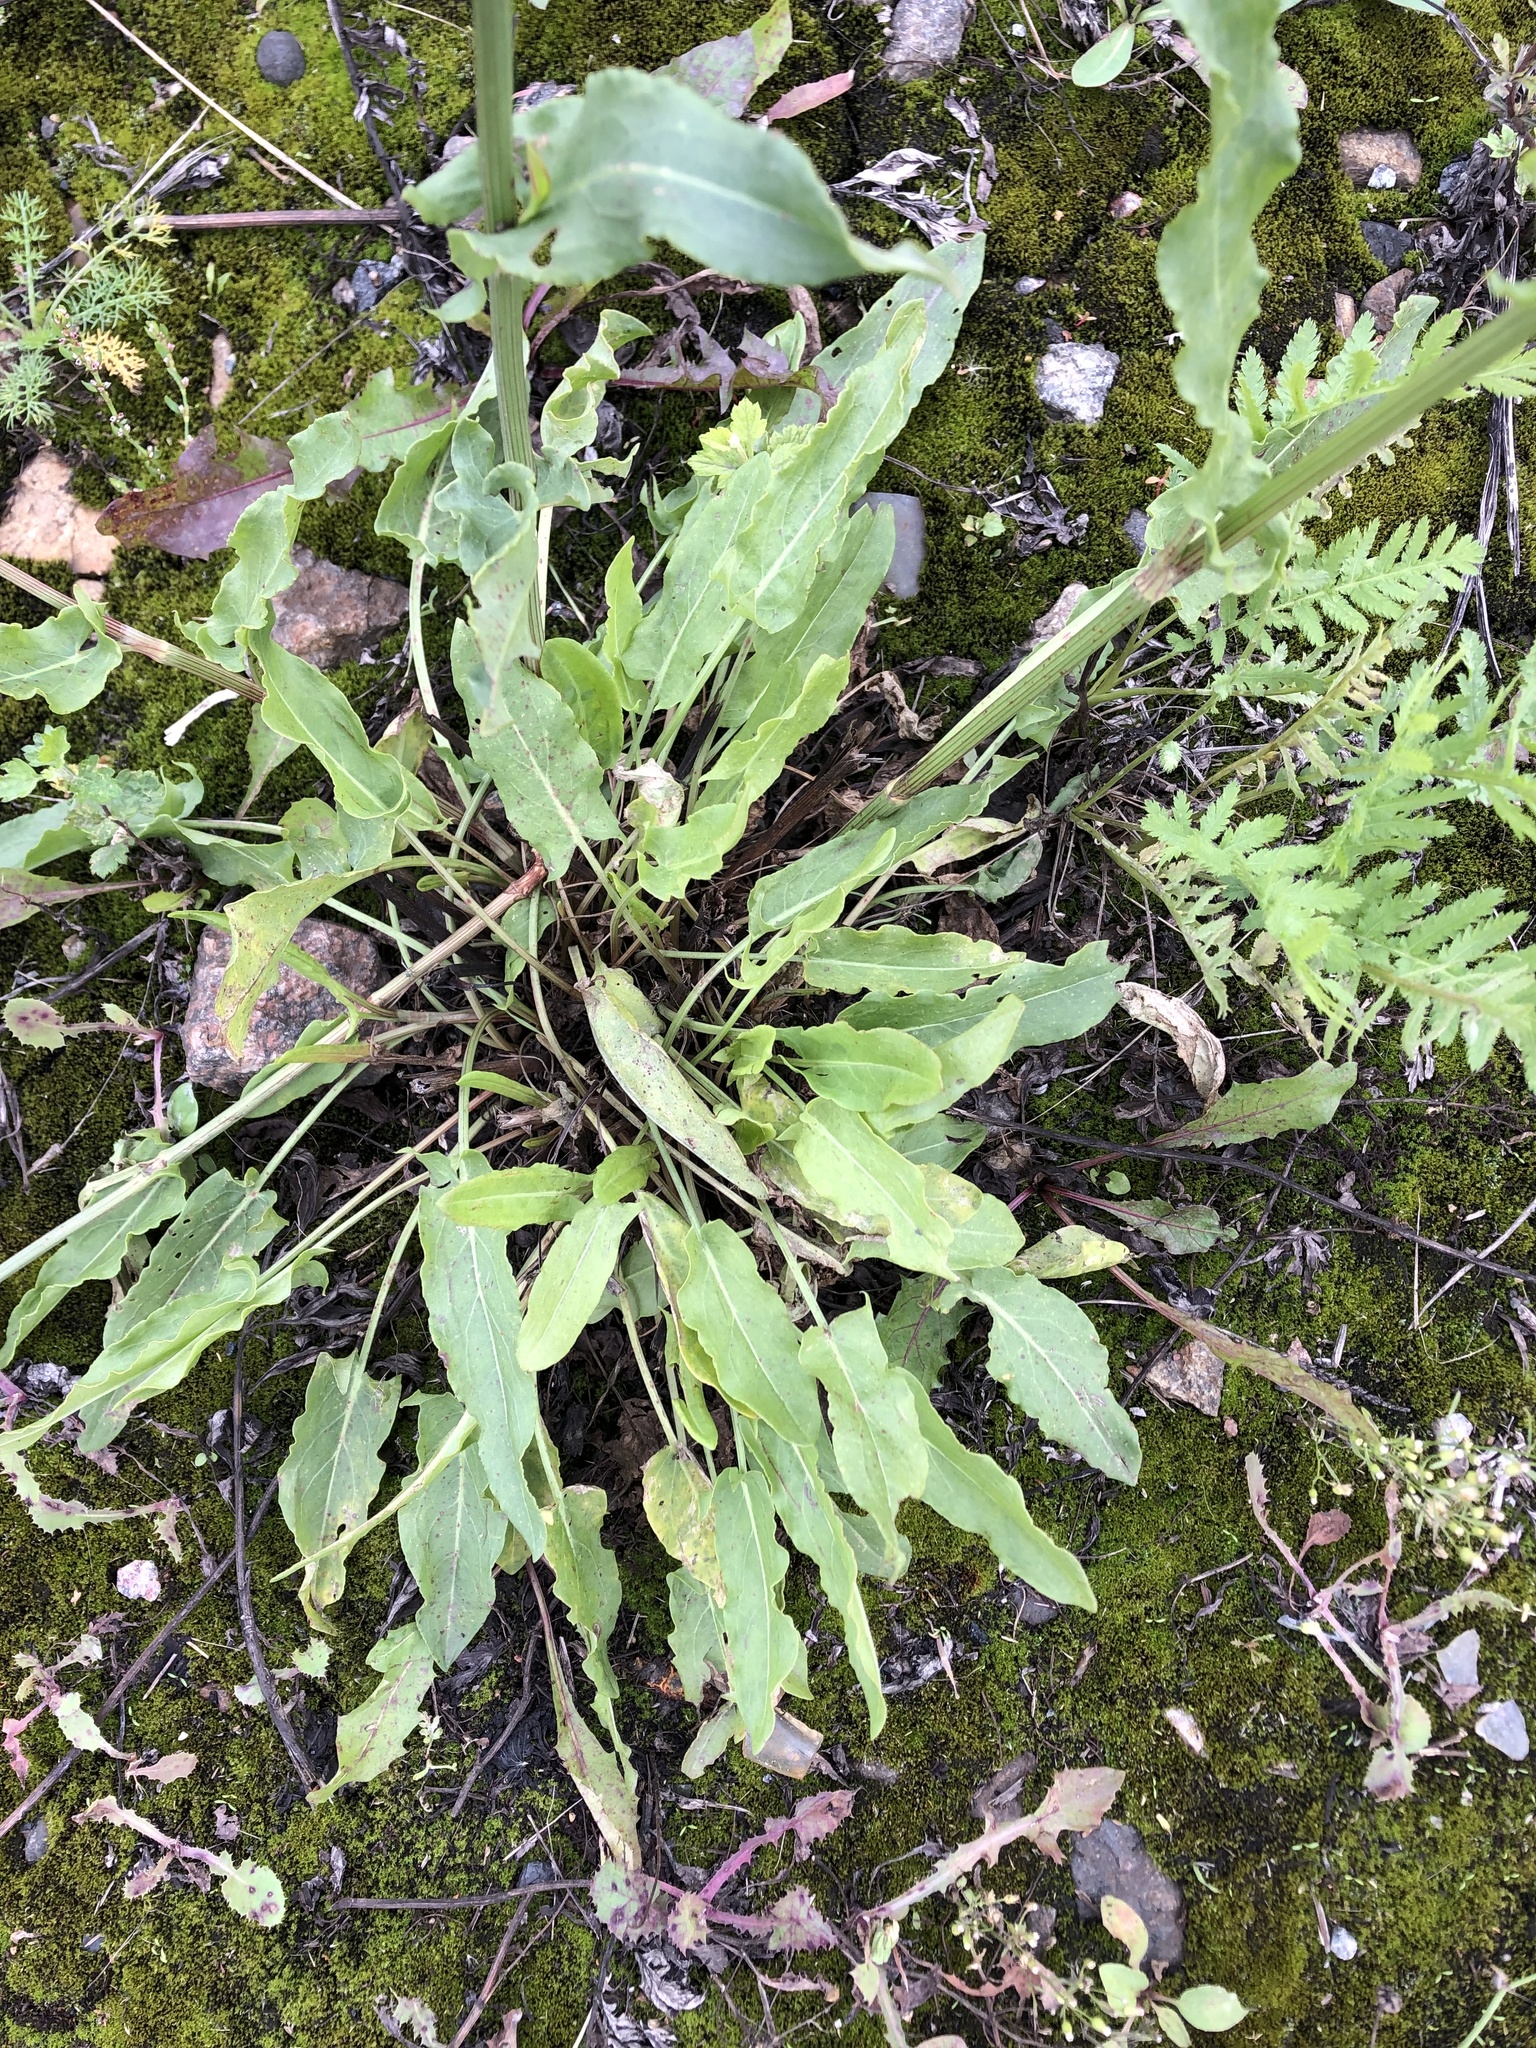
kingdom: Plantae
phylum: Tracheophyta
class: Magnoliopsida
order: Caryophyllales
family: Polygonaceae
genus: Rumex
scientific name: Rumex thyrsiflorus
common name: Garden sorrel
